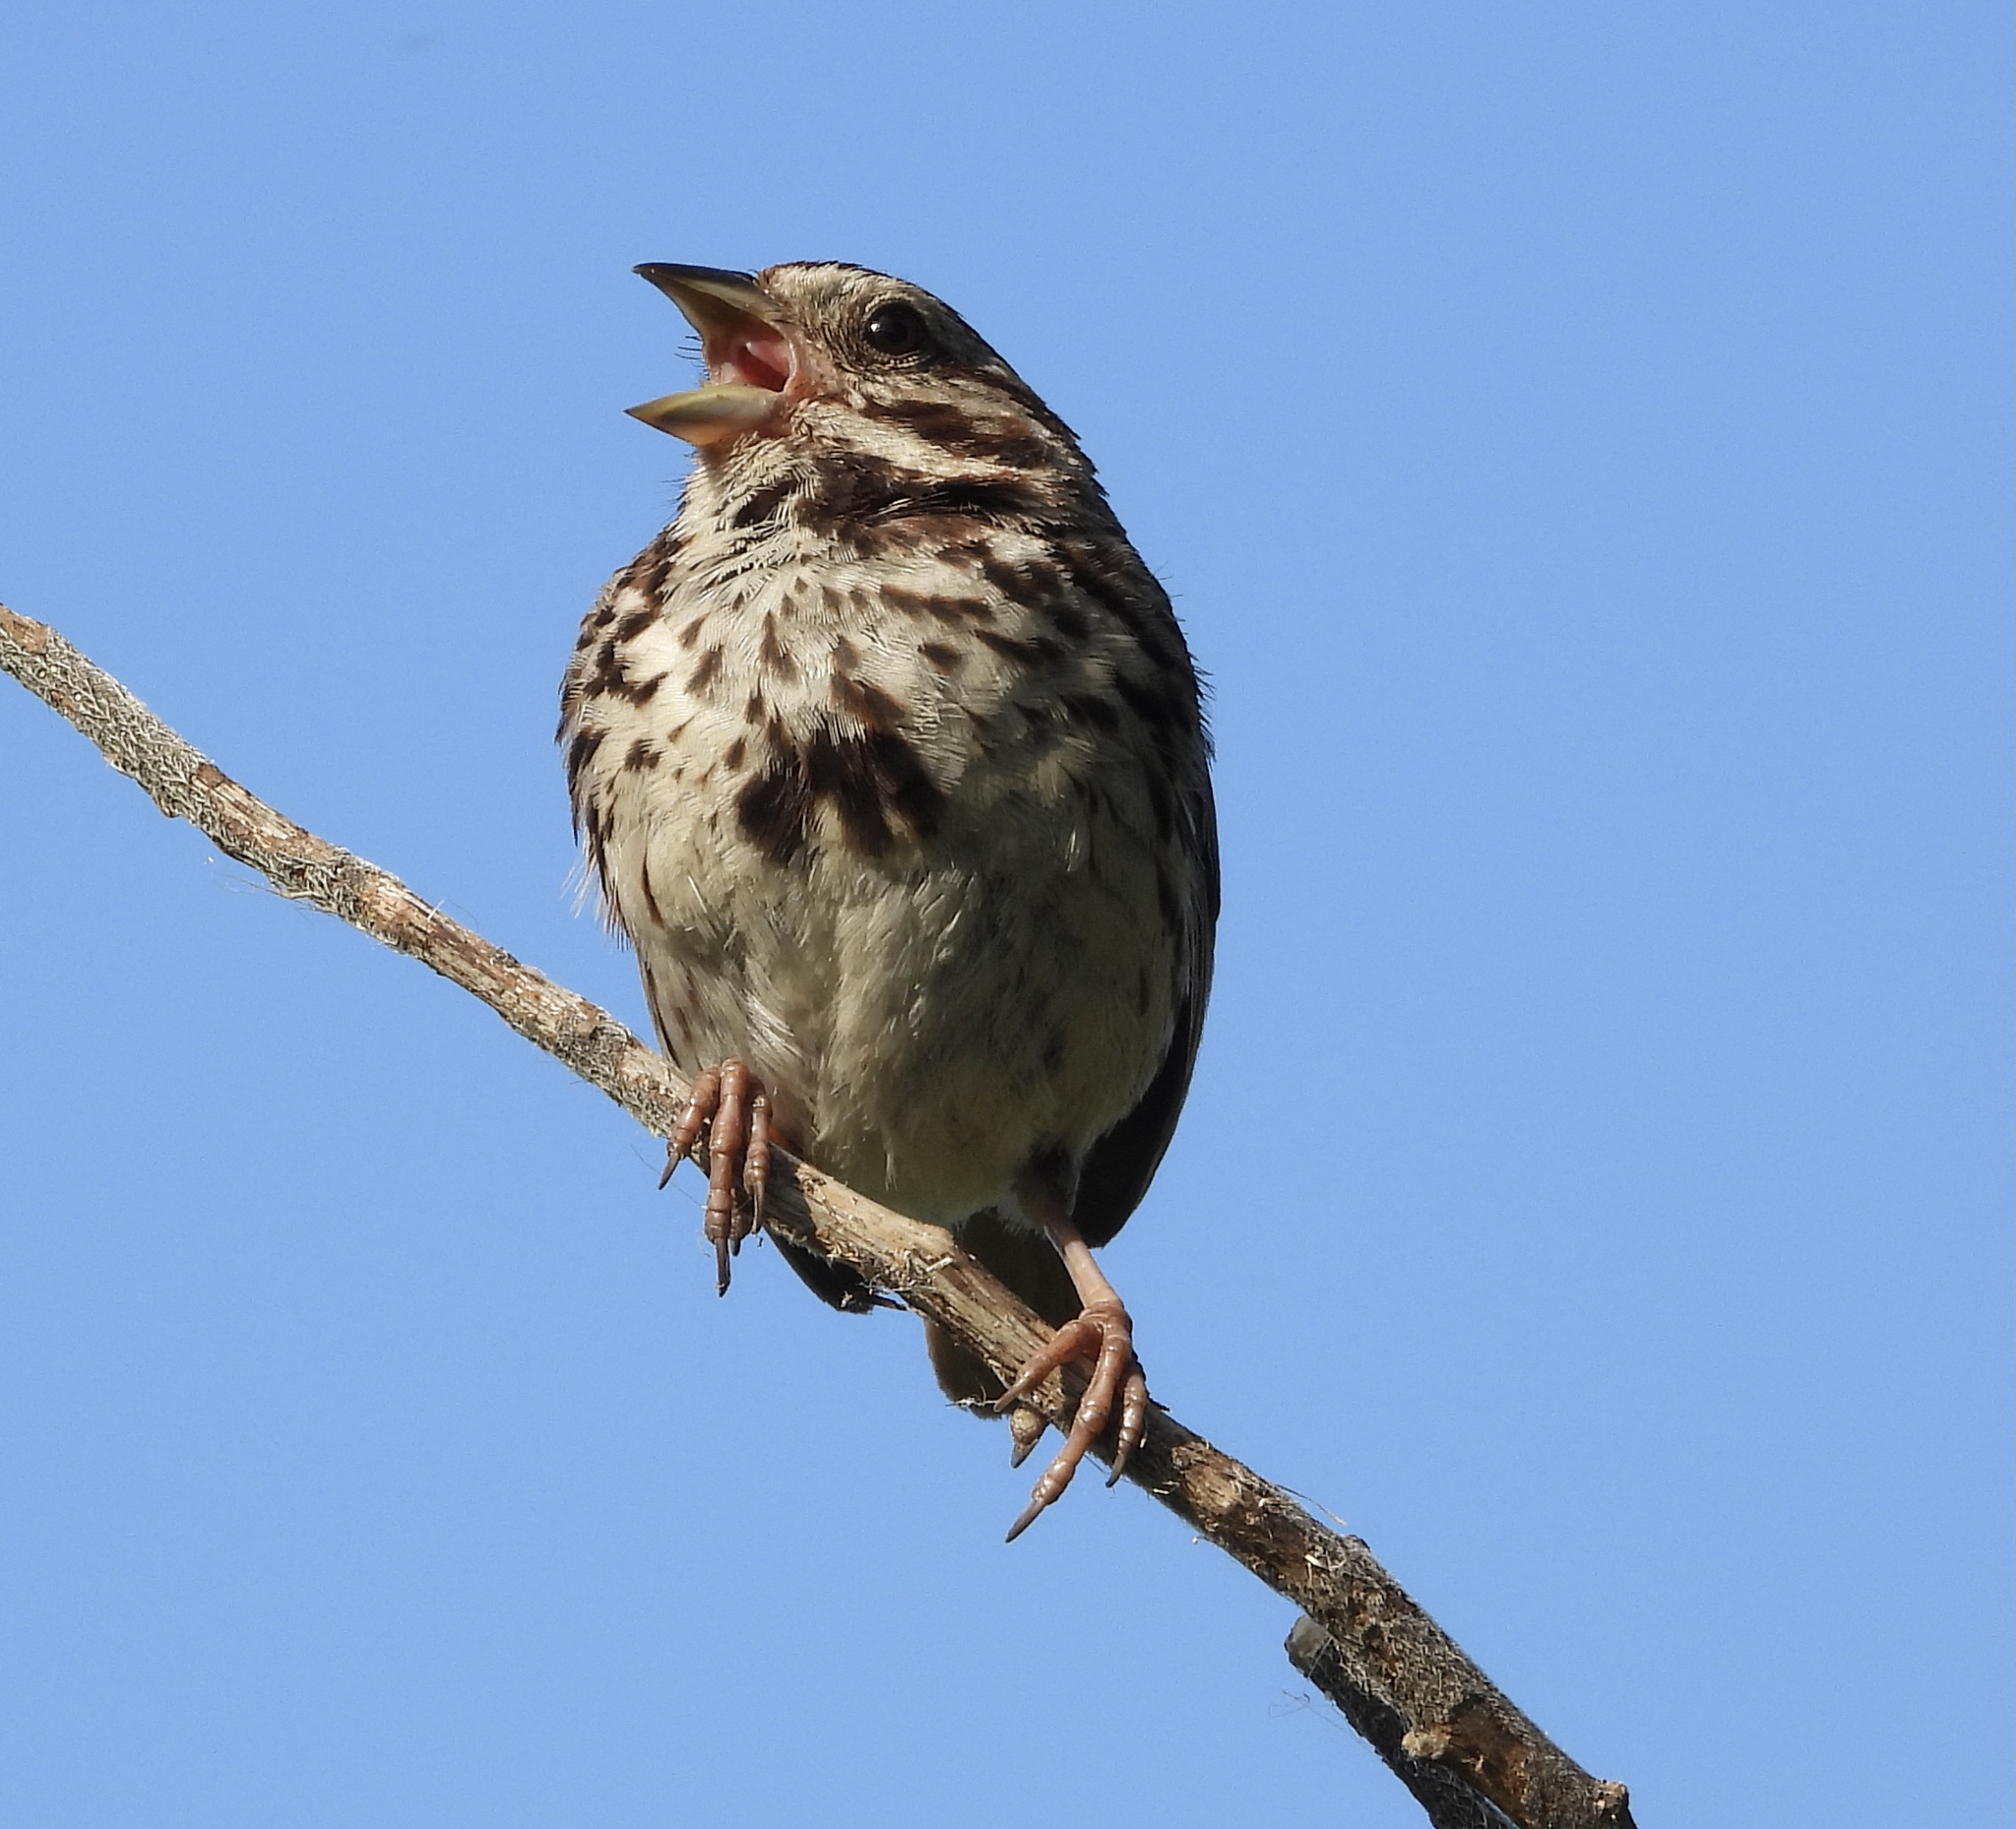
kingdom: Animalia
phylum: Chordata
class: Aves
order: Passeriformes
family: Passerellidae
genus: Melospiza
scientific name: Melospiza melodia
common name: Song sparrow
